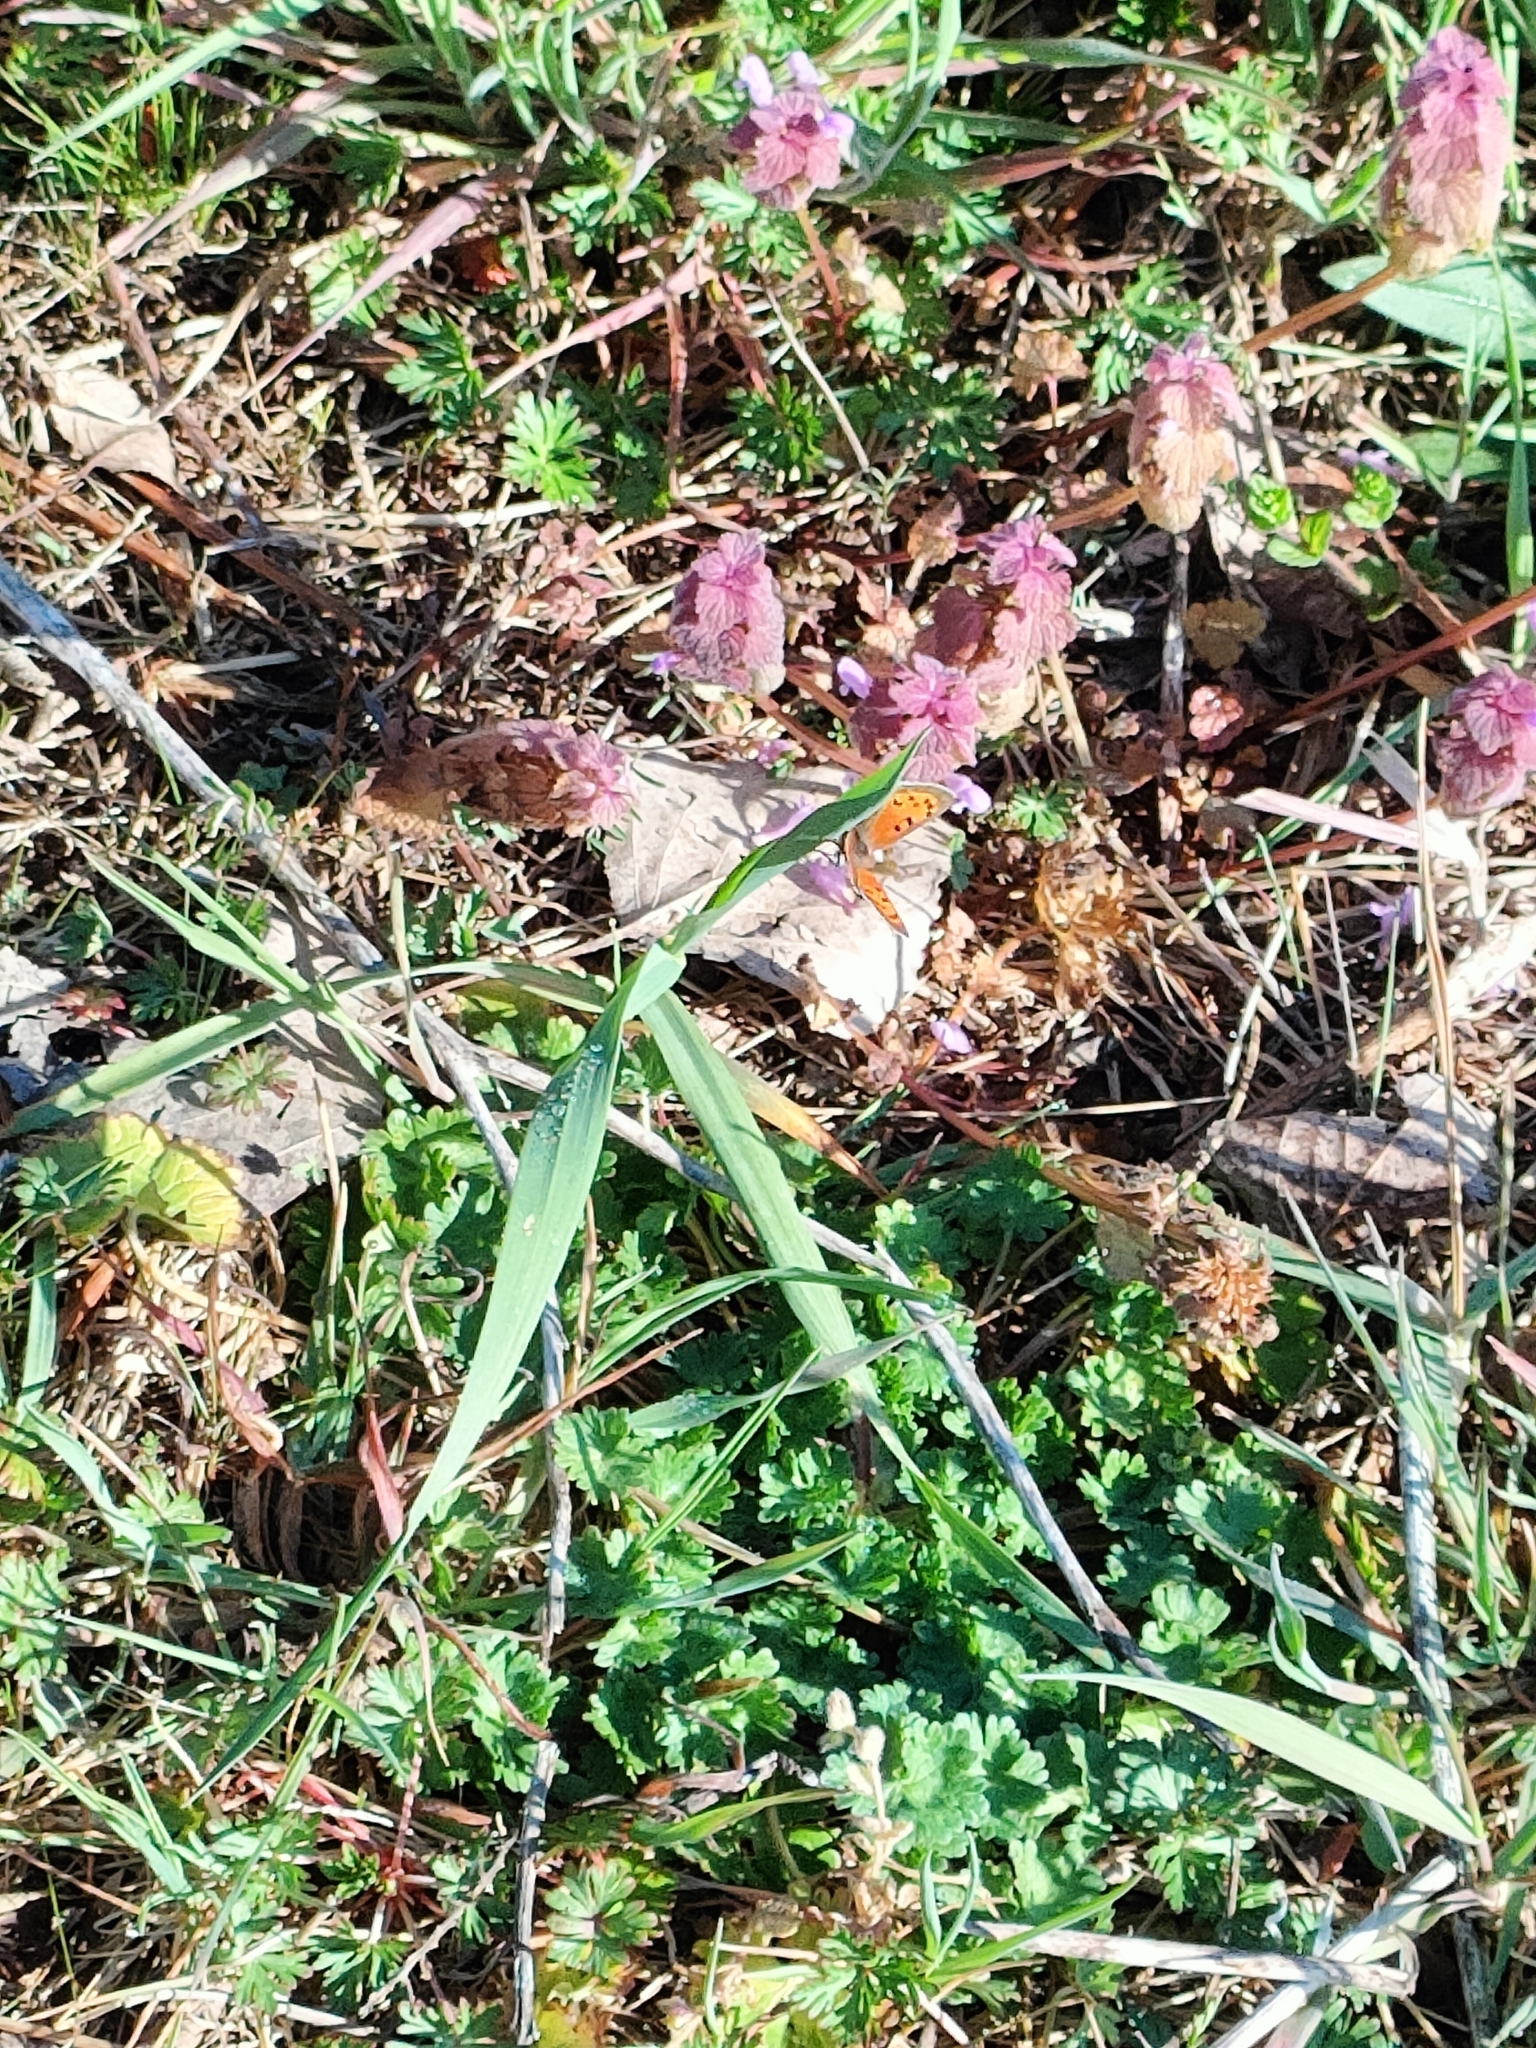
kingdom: Animalia
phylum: Arthropoda
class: Insecta
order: Lepidoptera
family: Lycaenidae
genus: Lycaena
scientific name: Lycaena phlaeas
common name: Small copper
